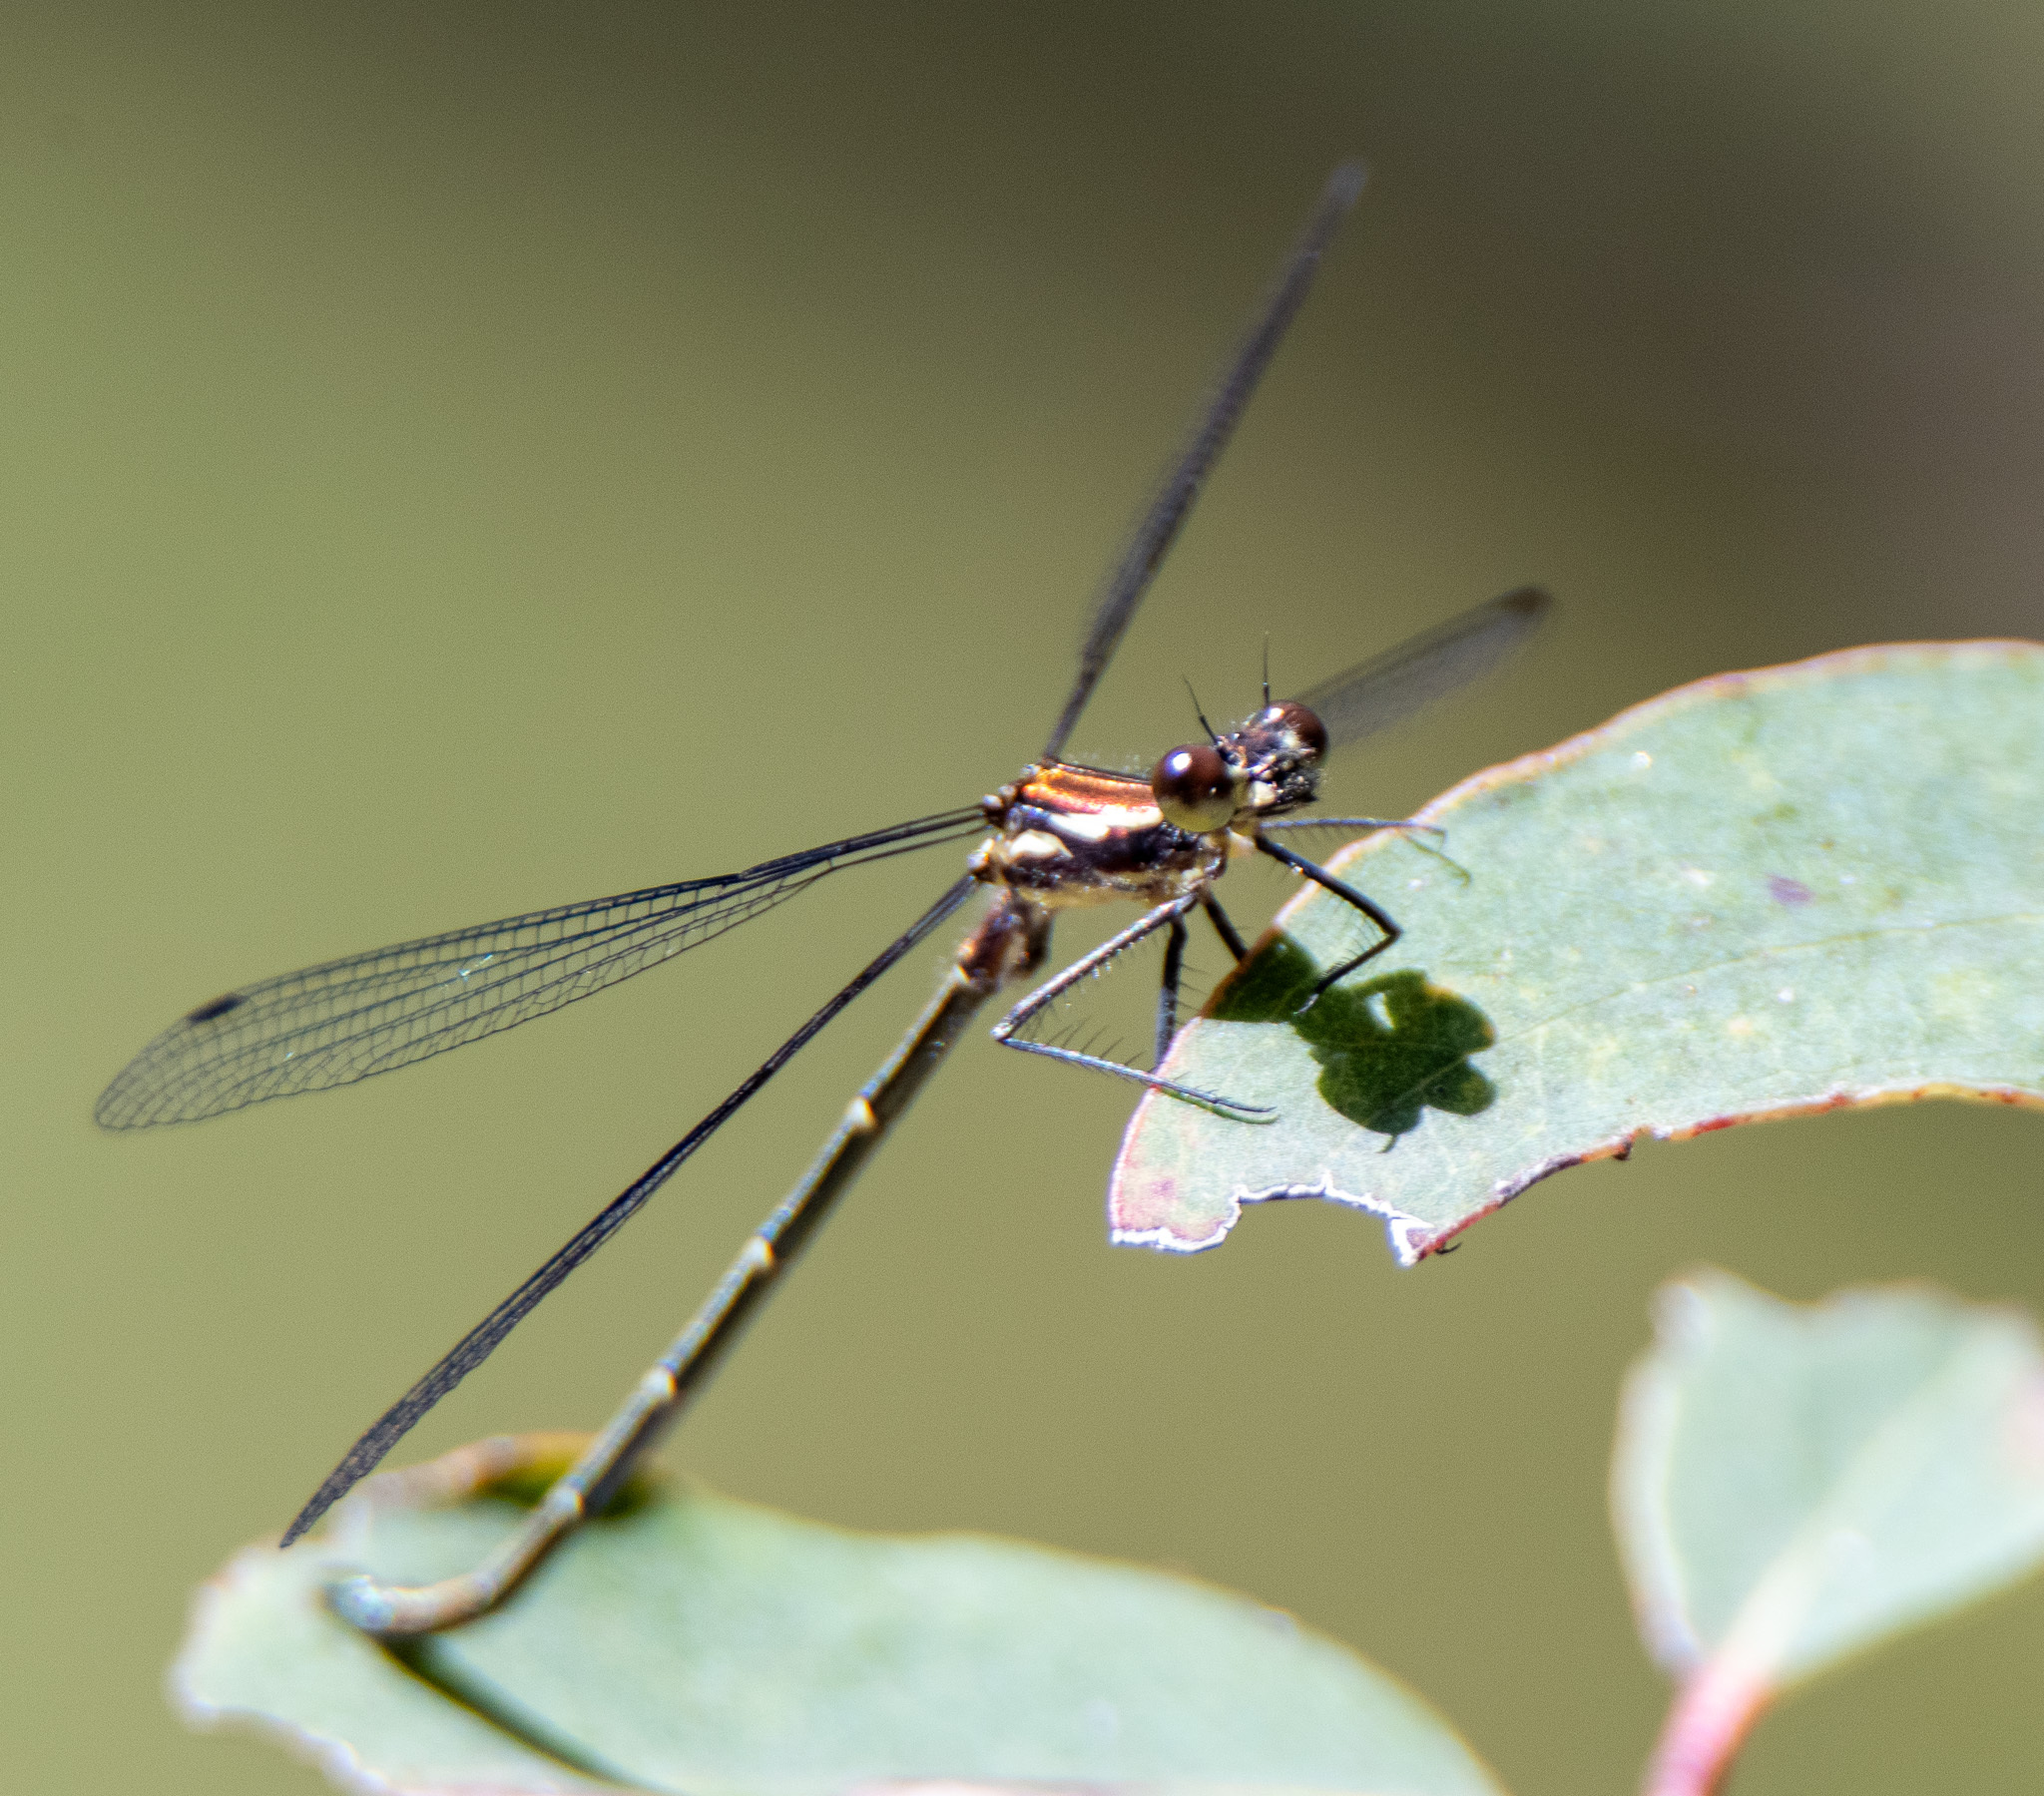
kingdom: Animalia
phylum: Arthropoda
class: Insecta
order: Odonata
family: Argiolestidae
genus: Austroargiolestes
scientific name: Austroargiolestes isabellae
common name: Sydney flatwing
